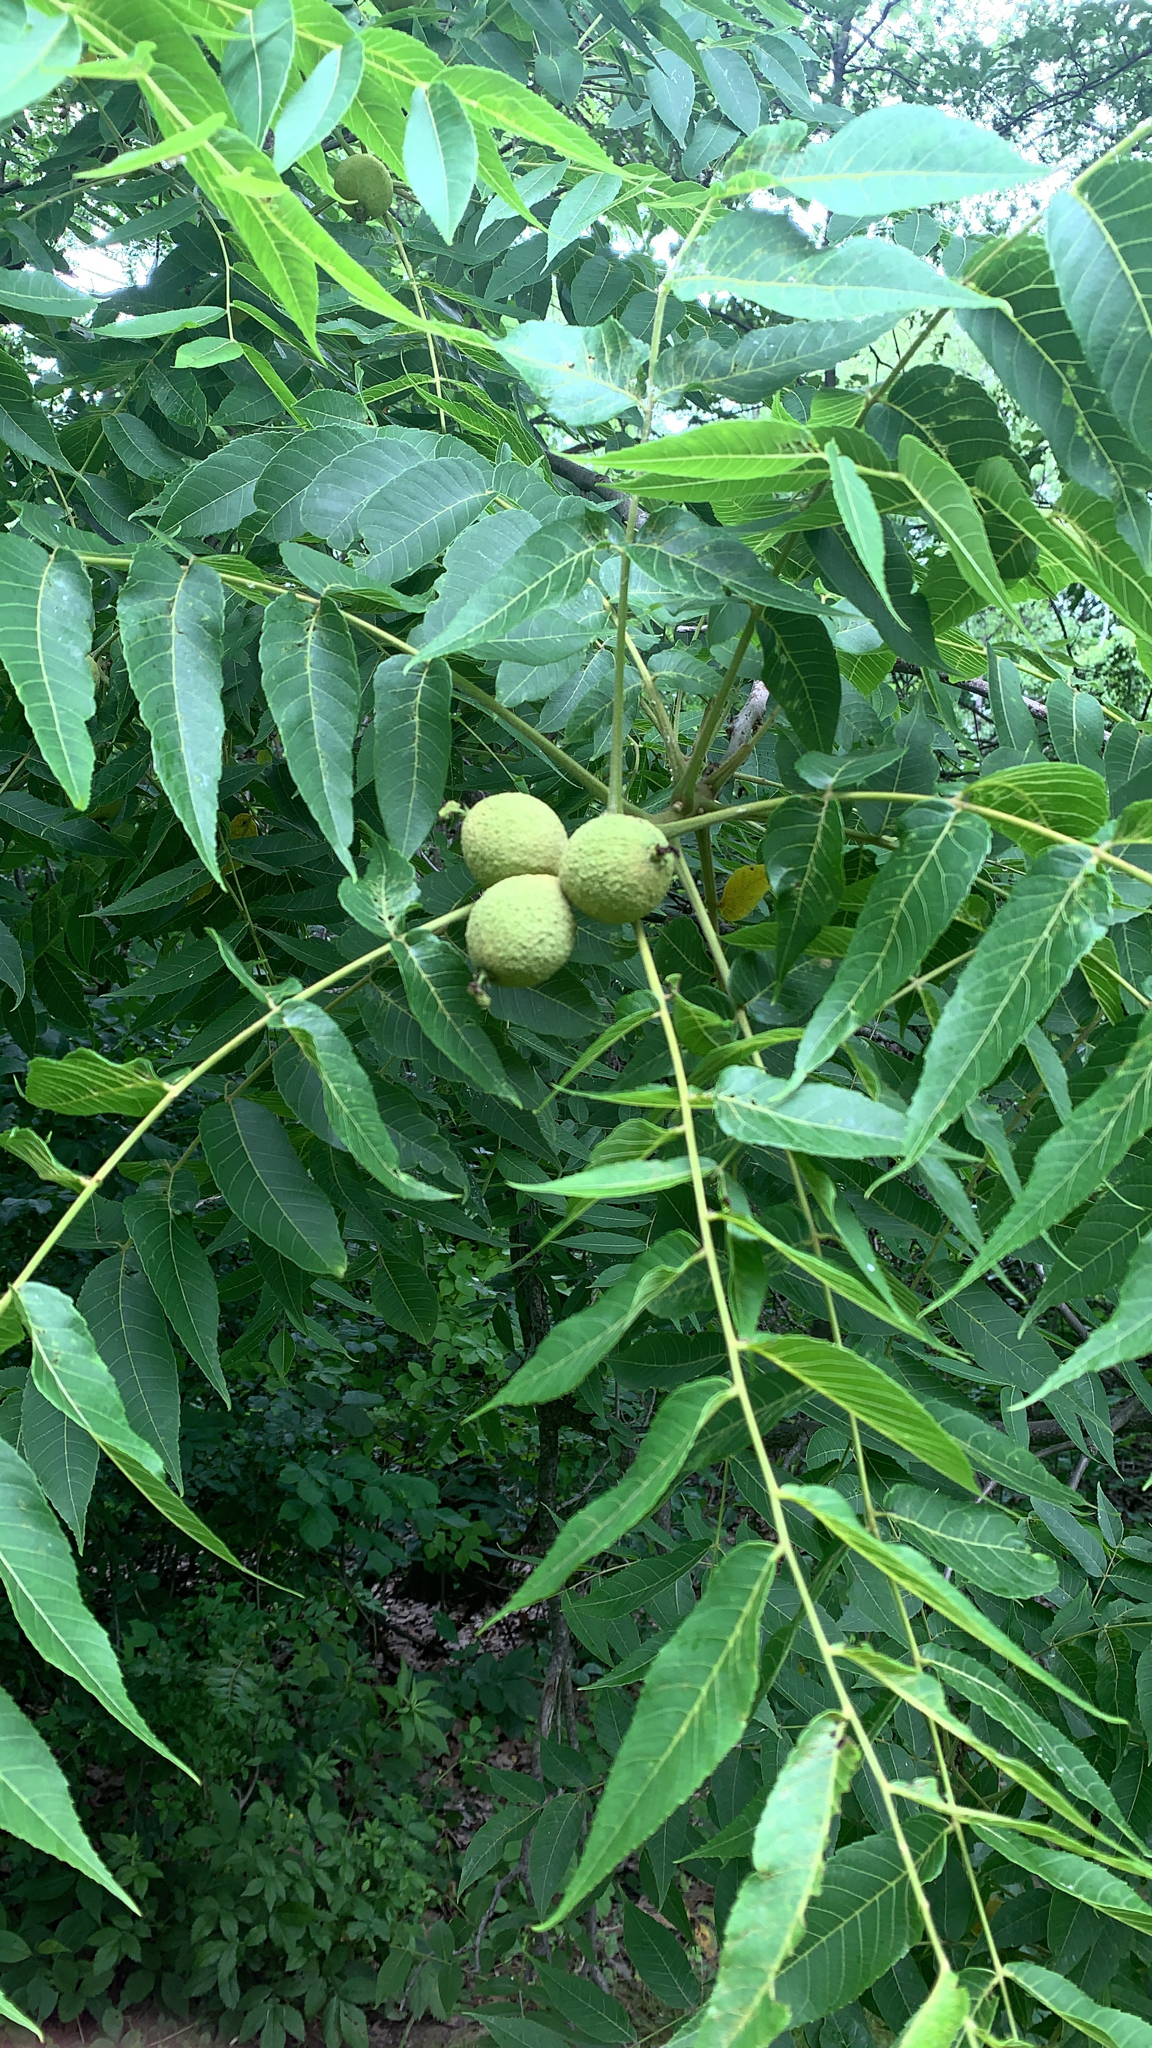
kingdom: Plantae
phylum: Tracheophyta
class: Magnoliopsida
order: Fagales
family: Juglandaceae
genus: Juglans
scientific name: Juglans nigra
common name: Black walnut
